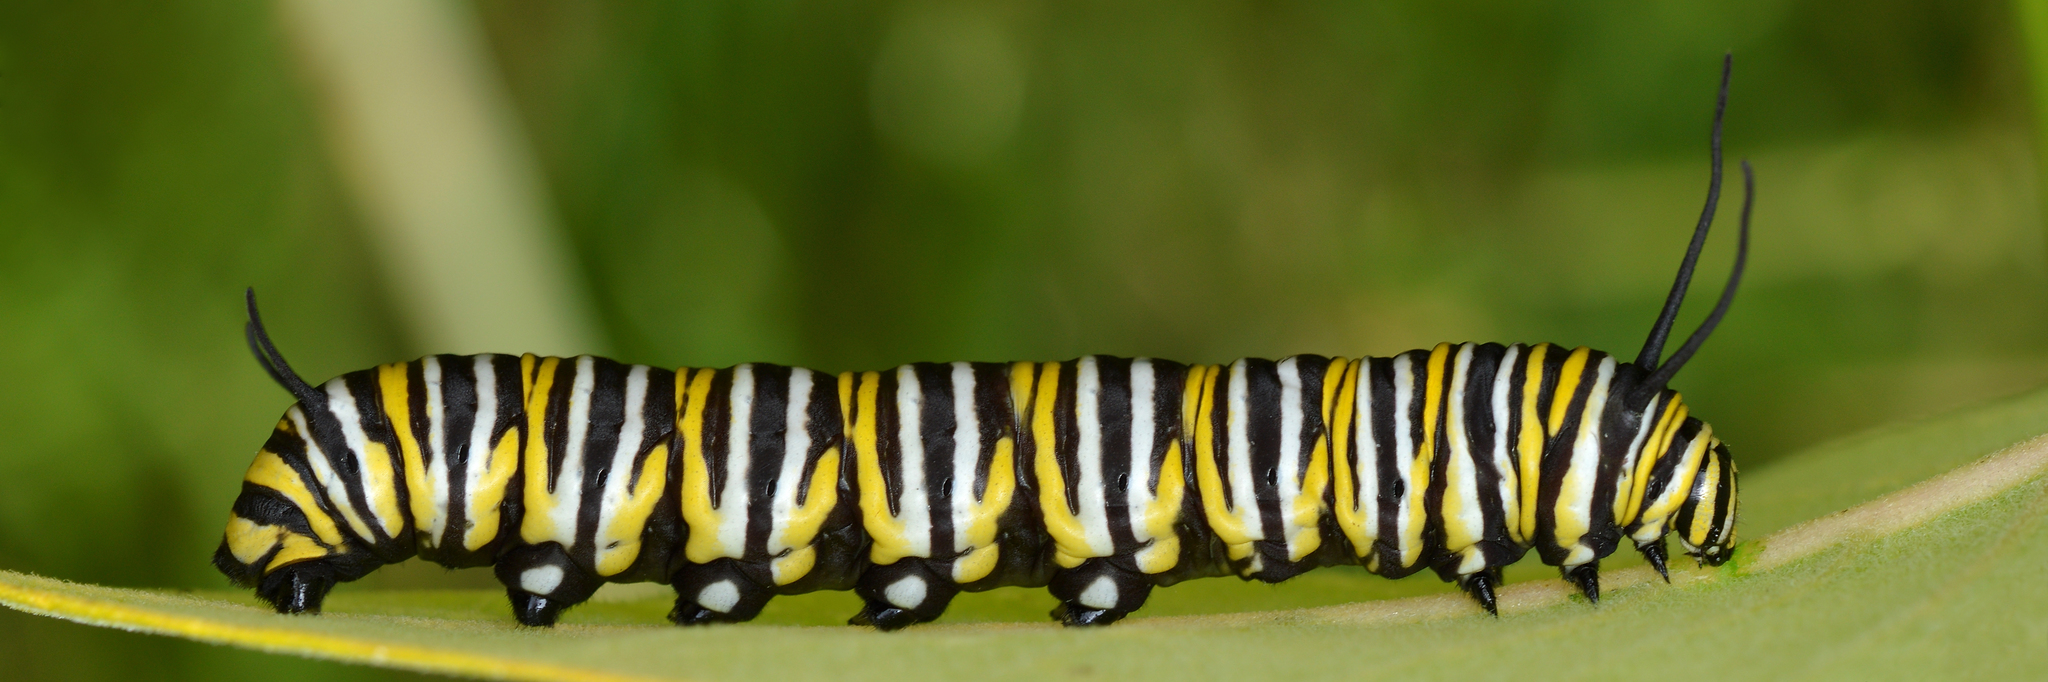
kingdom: Animalia
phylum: Arthropoda
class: Insecta
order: Lepidoptera
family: Nymphalidae
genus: Danaus
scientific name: Danaus plexippus
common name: Monarch
